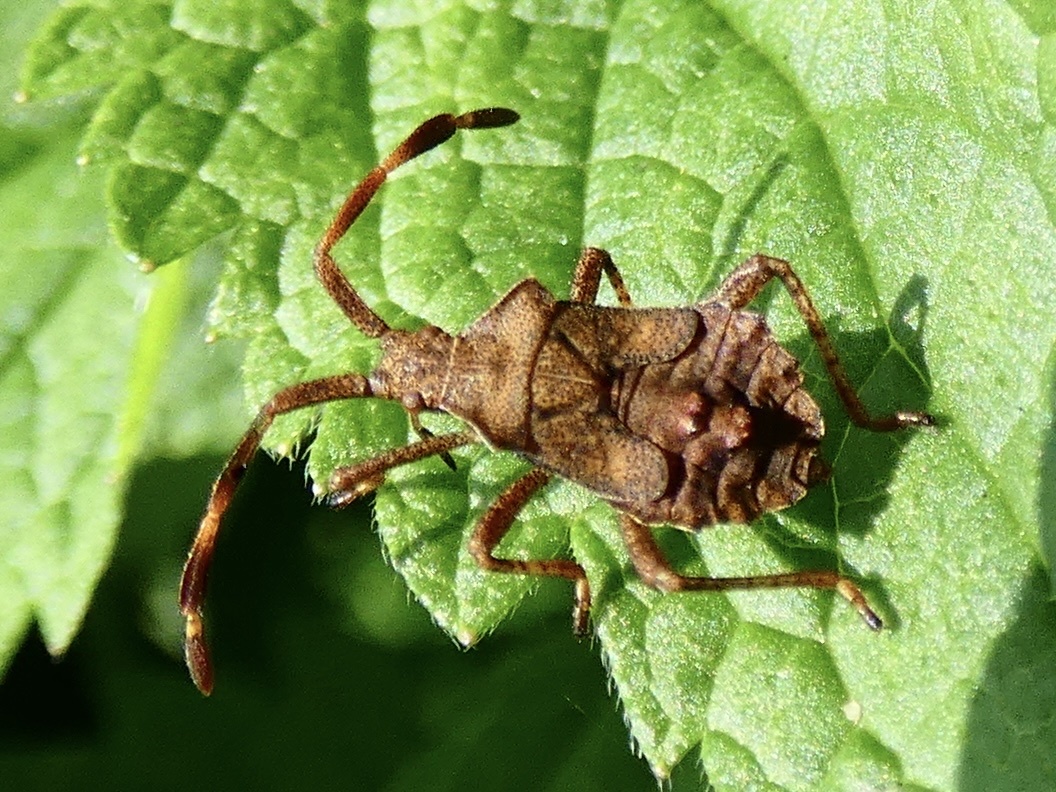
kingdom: Animalia
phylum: Arthropoda
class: Insecta
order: Hemiptera
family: Coreidae
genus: Coreus
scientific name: Coreus marginatus
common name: Dock bug
